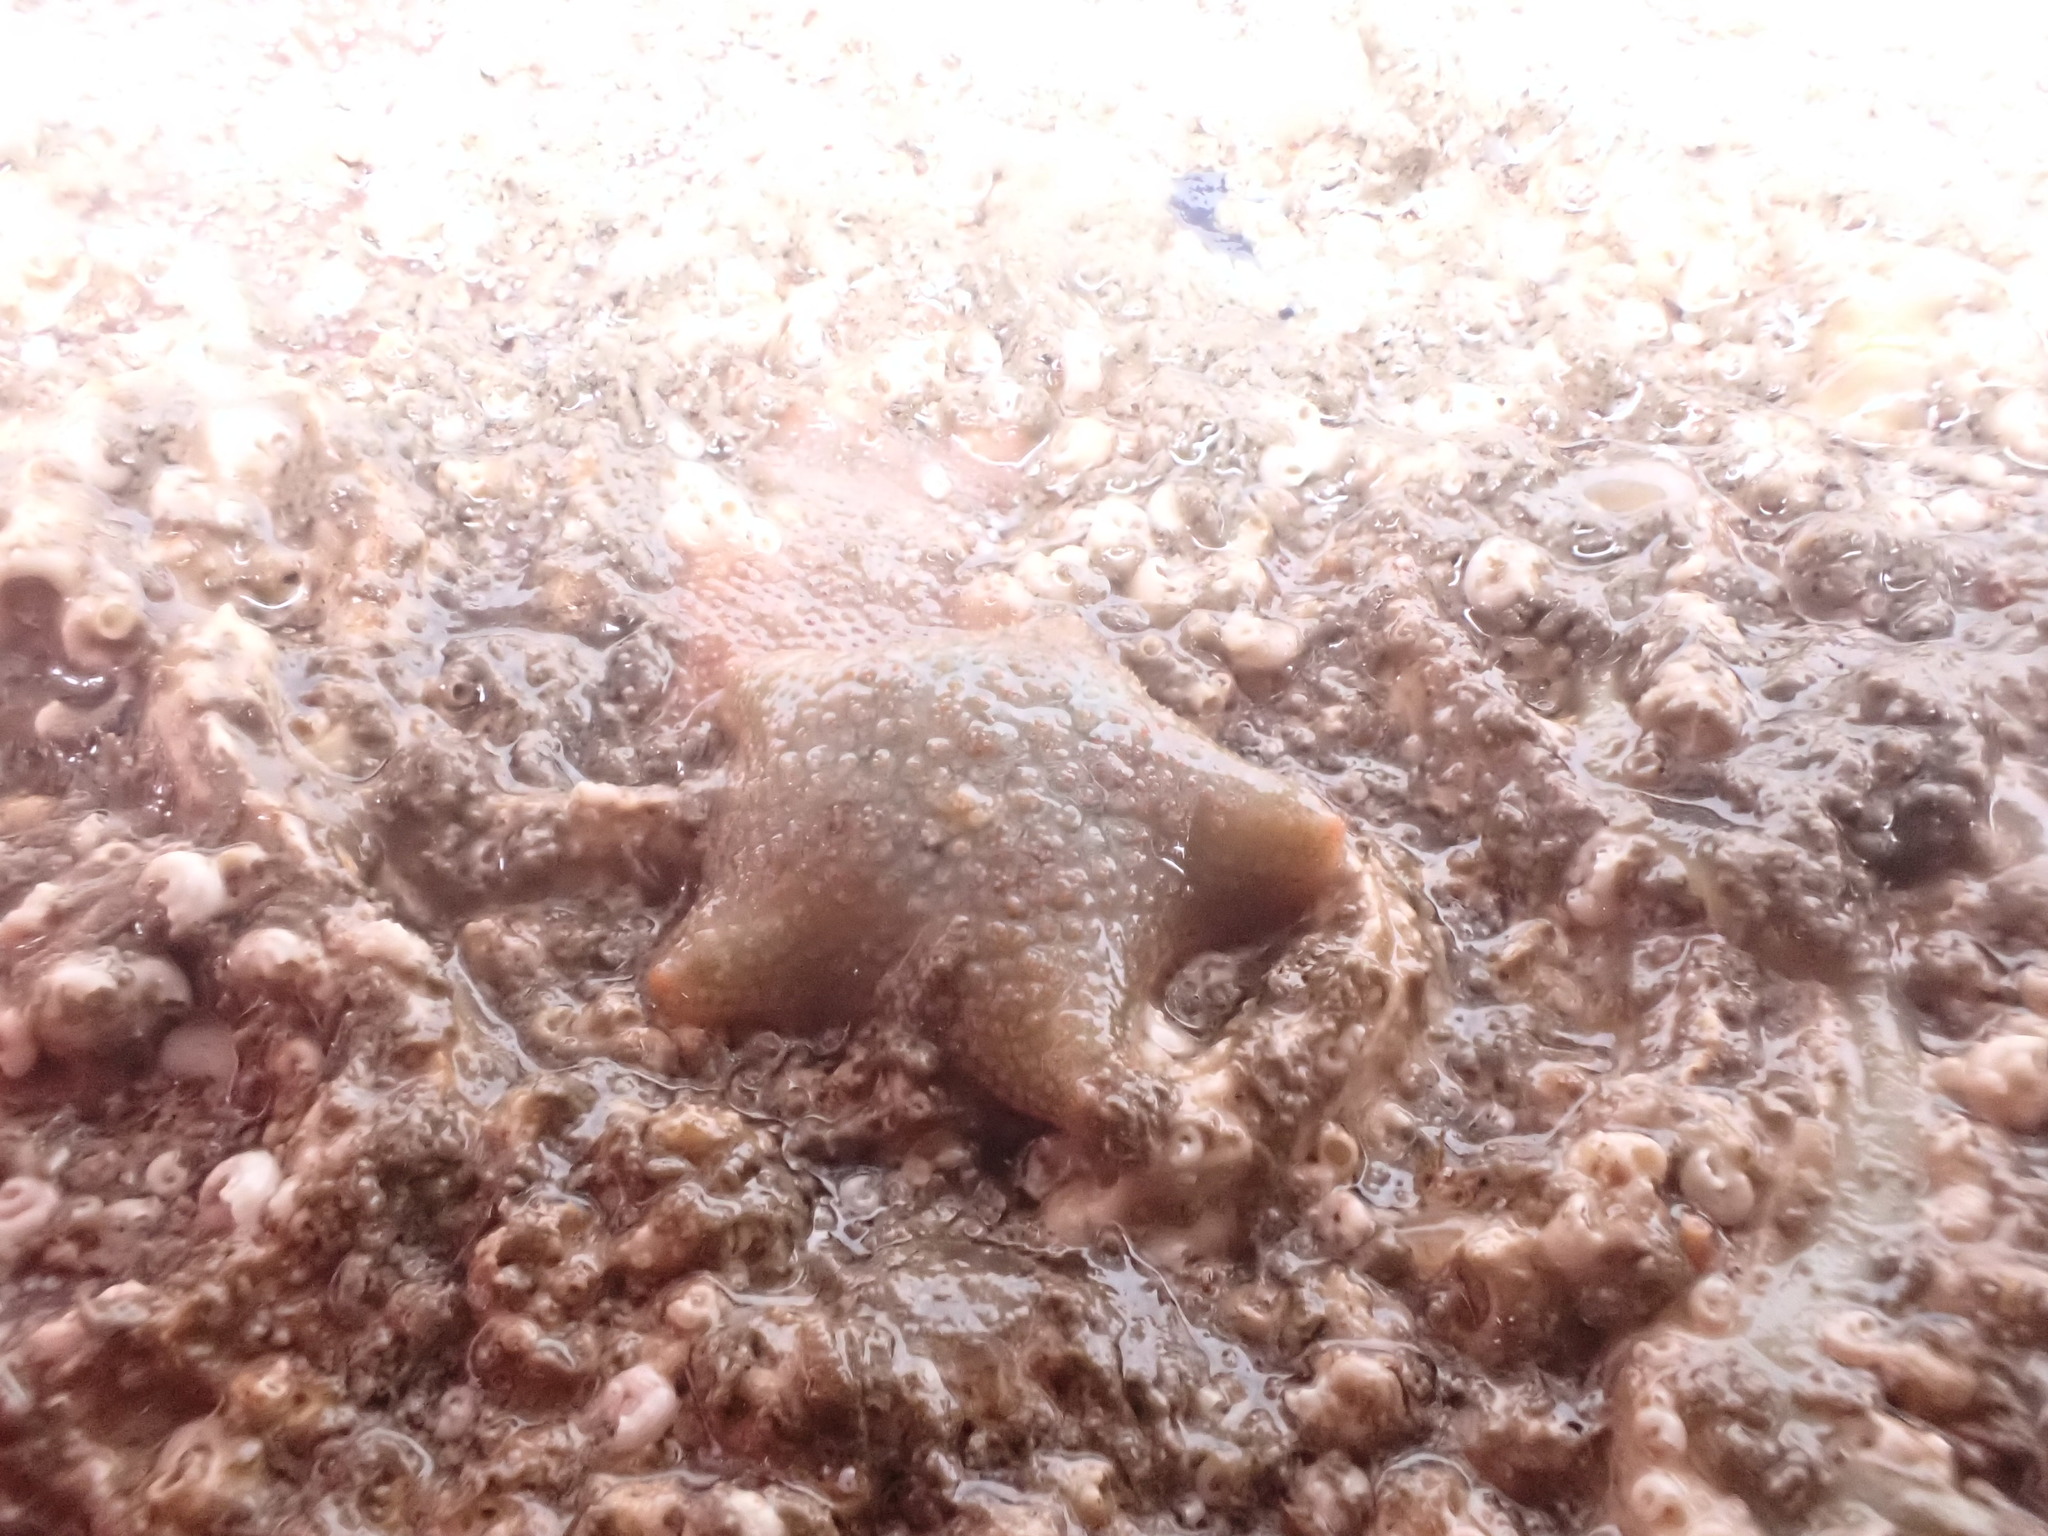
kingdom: Animalia
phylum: Echinodermata
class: Asteroidea
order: Valvatida
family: Asterinidae
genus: Asterina
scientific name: Asterina gibbosa
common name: Cushion star
